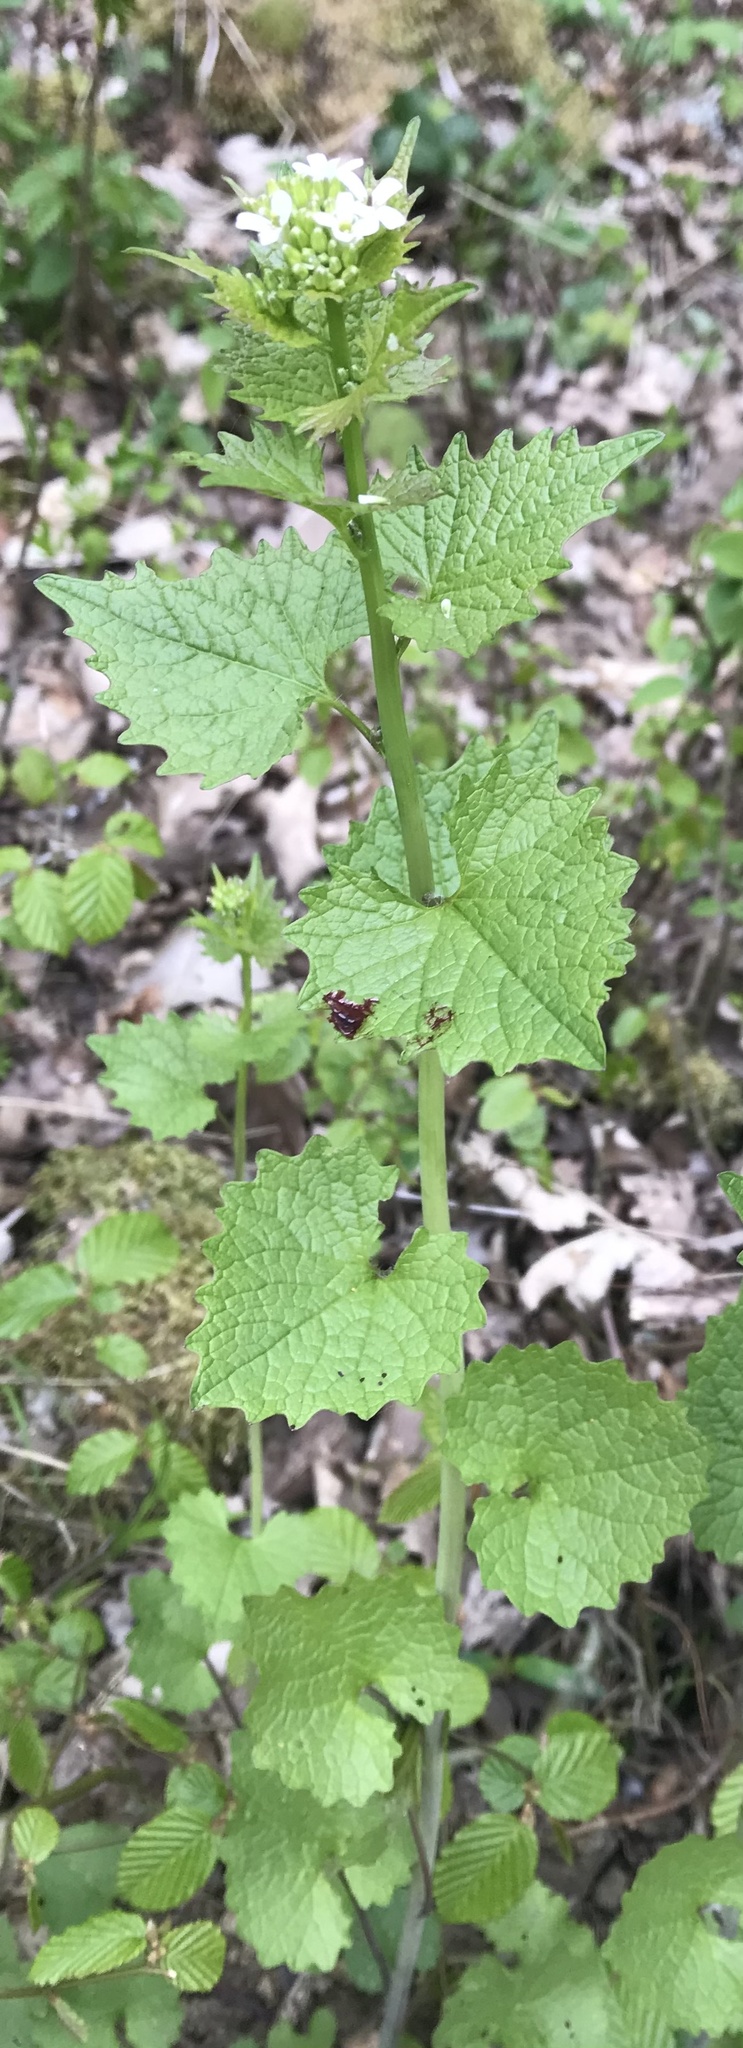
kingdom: Plantae
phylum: Tracheophyta
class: Magnoliopsida
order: Brassicales
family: Brassicaceae
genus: Alliaria
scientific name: Alliaria petiolata
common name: Garlic mustard
